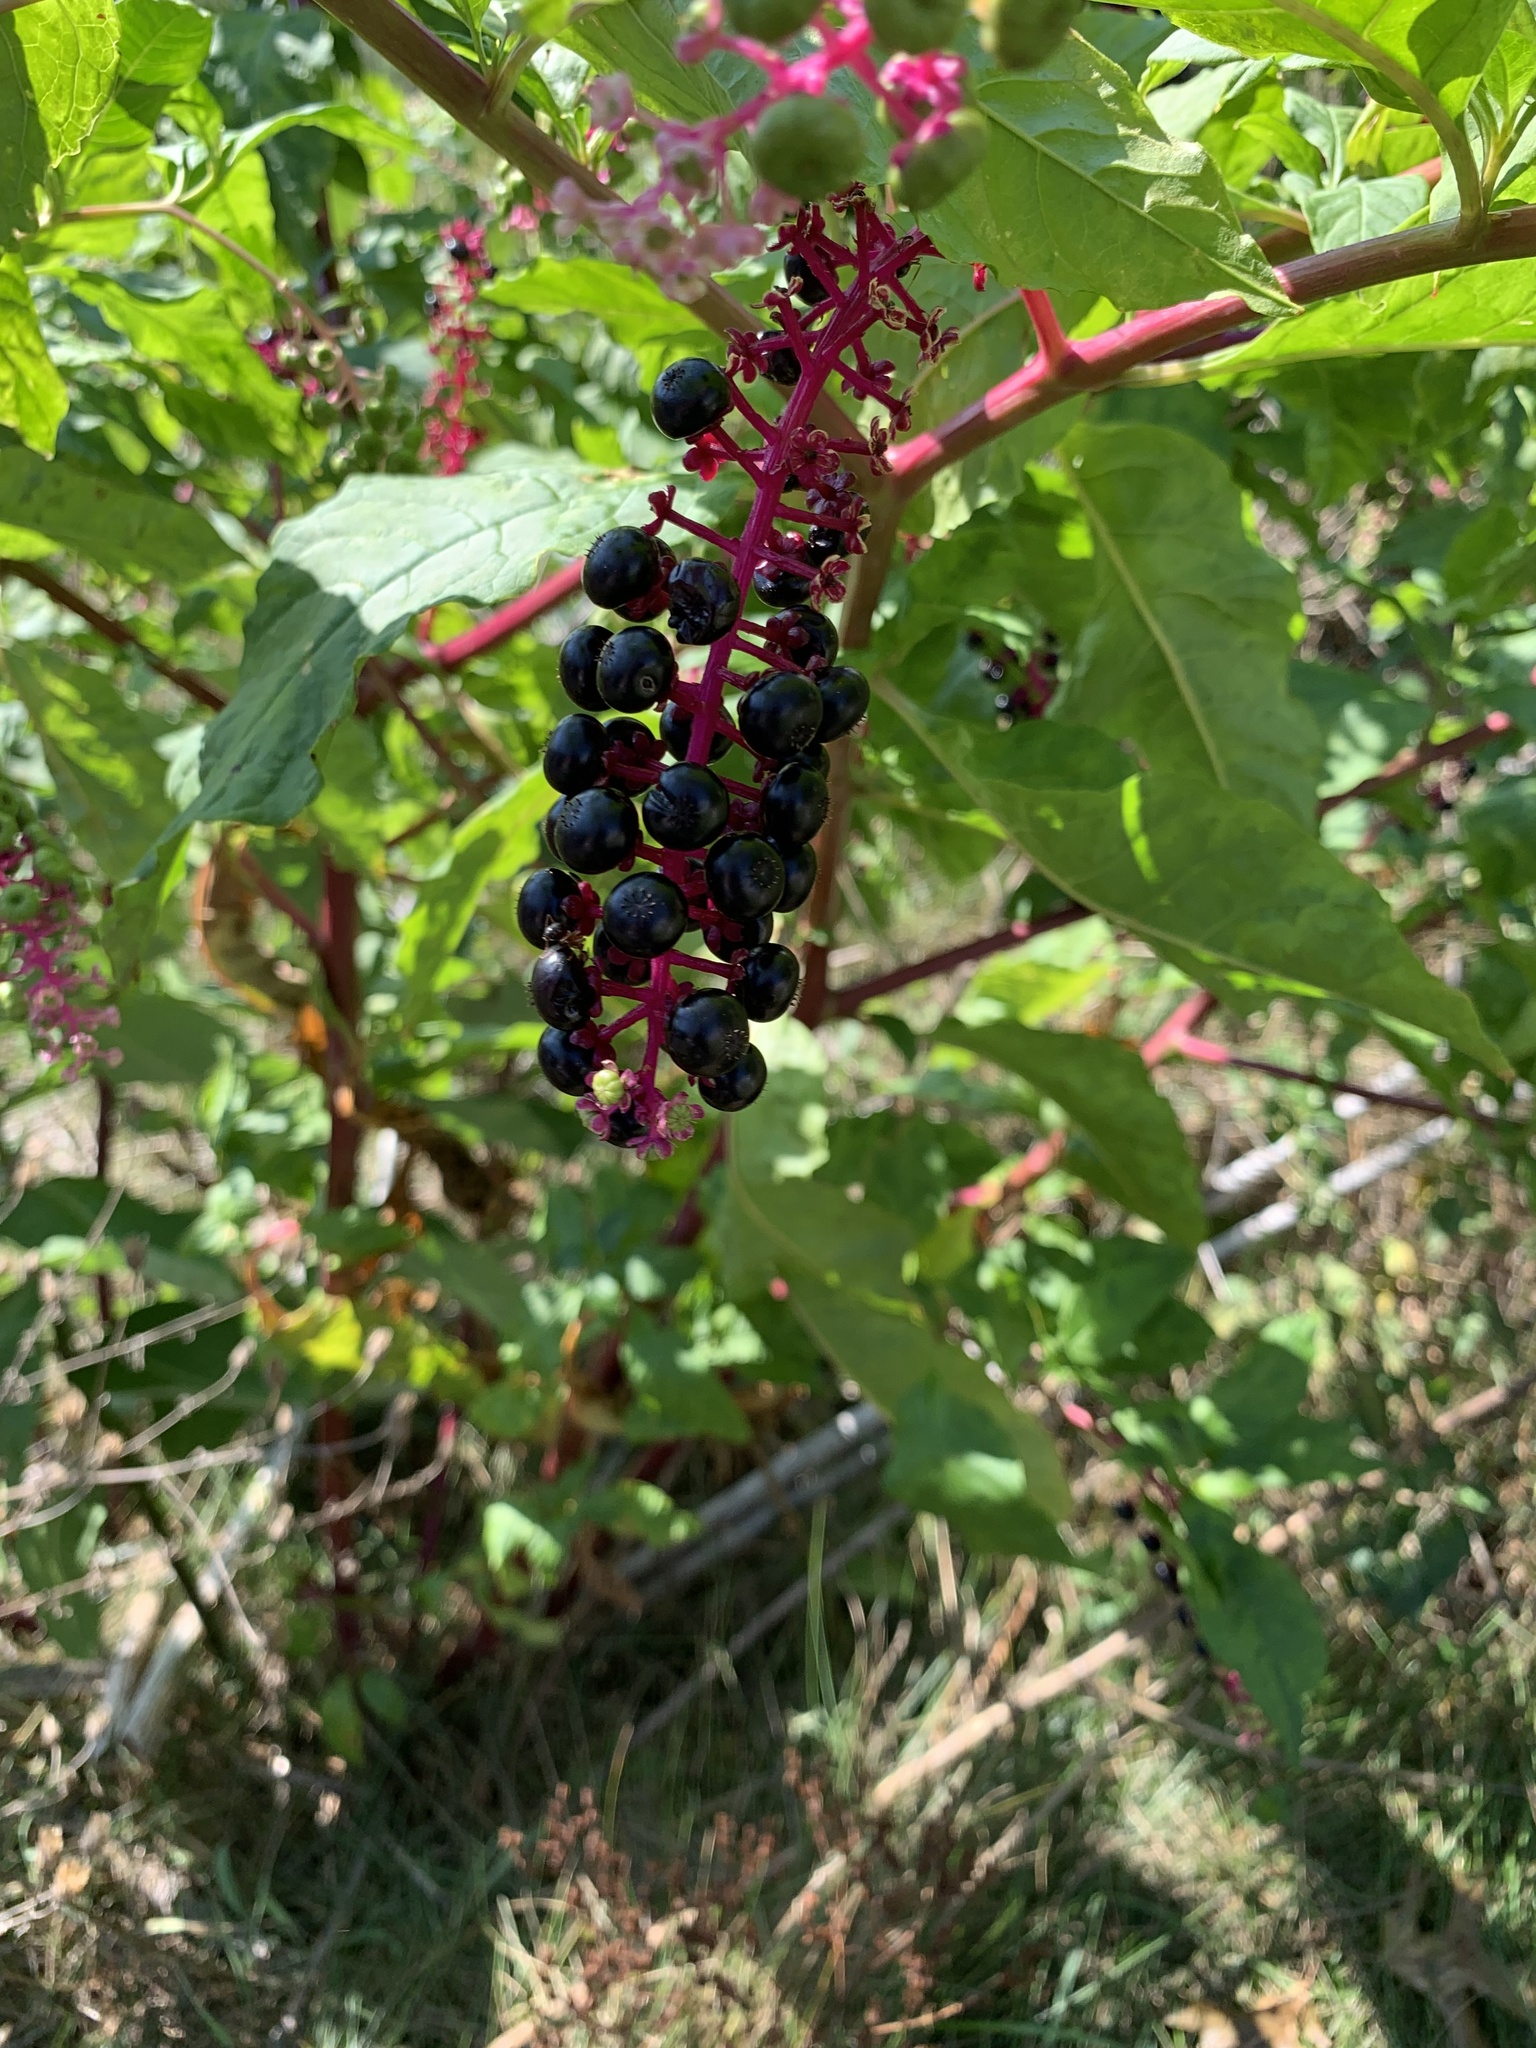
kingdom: Plantae
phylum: Tracheophyta
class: Magnoliopsida
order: Caryophyllales
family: Phytolaccaceae
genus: Phytolacca
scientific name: Phytolacca americana
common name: American pokeweed
